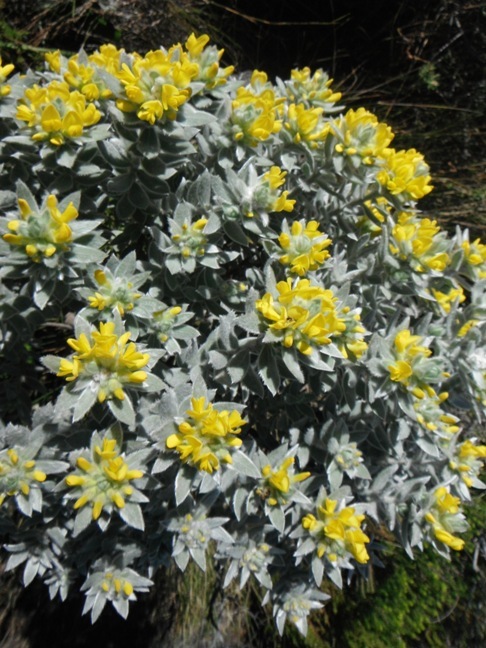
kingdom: Plantae
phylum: Tracheophyta
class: Magnoliopsida
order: Fabales
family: Fabaceae
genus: Xiphotheca
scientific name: Xiphotheca fruticosa
